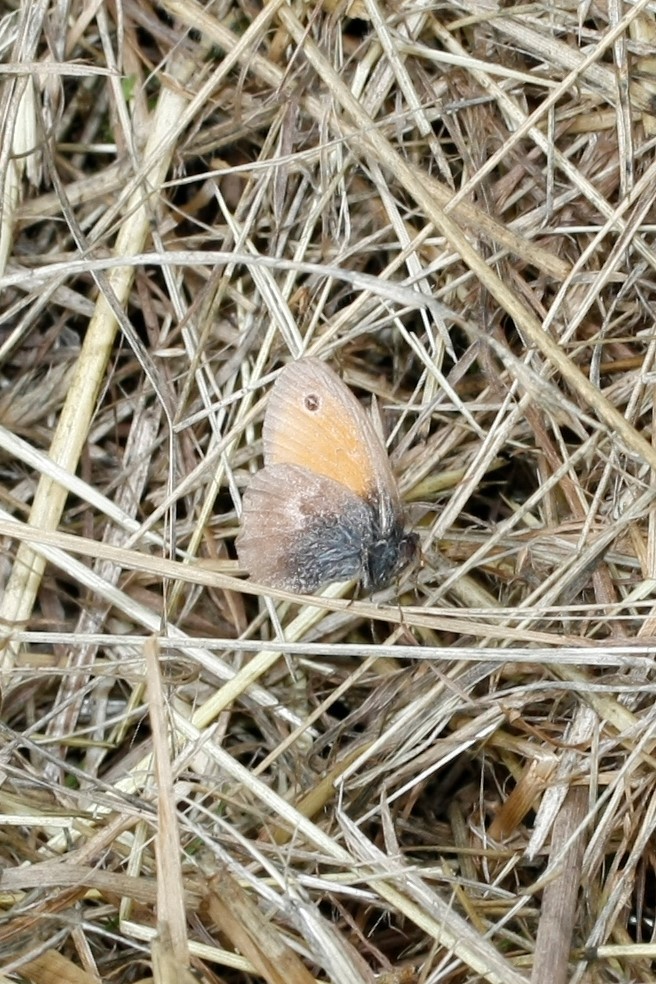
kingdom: Animalia
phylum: Arthropoda
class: Insecta
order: Lepidoptera
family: Nymphalidae
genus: Coenonympha
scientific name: Coenonympha pamphilus
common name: Small heath
